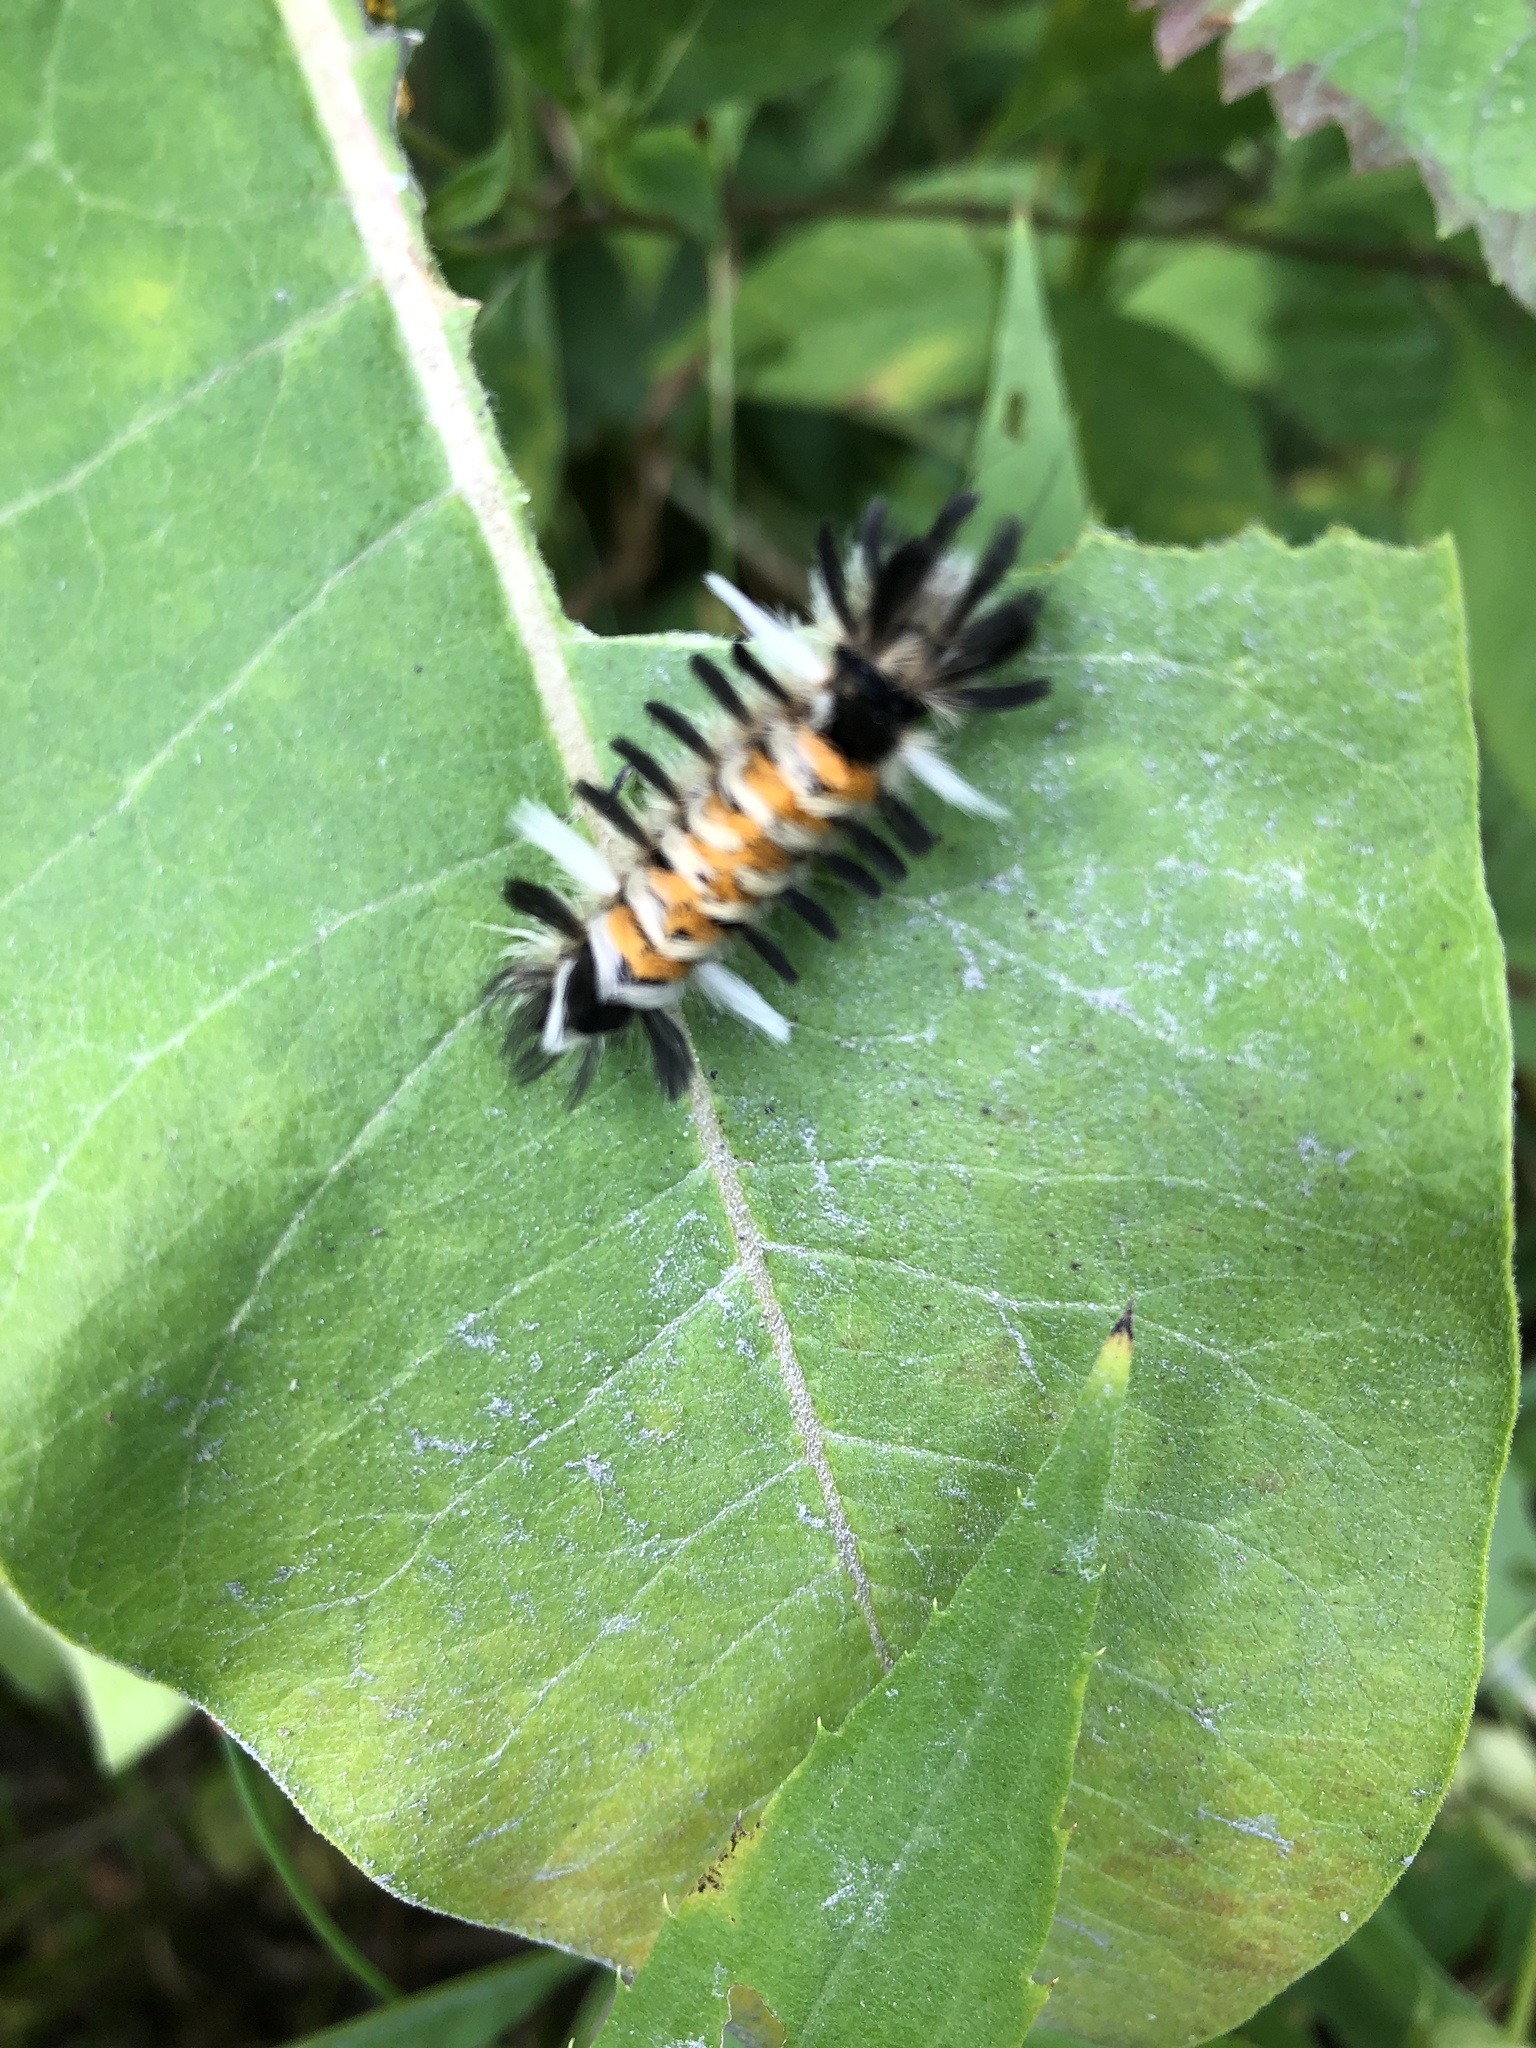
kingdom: Animalia
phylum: Arthropoda
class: Insecta
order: Lepidoptera
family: Erebidae
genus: Euchaetes
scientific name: Euchaetes egle
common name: Milkweed tussock moth
